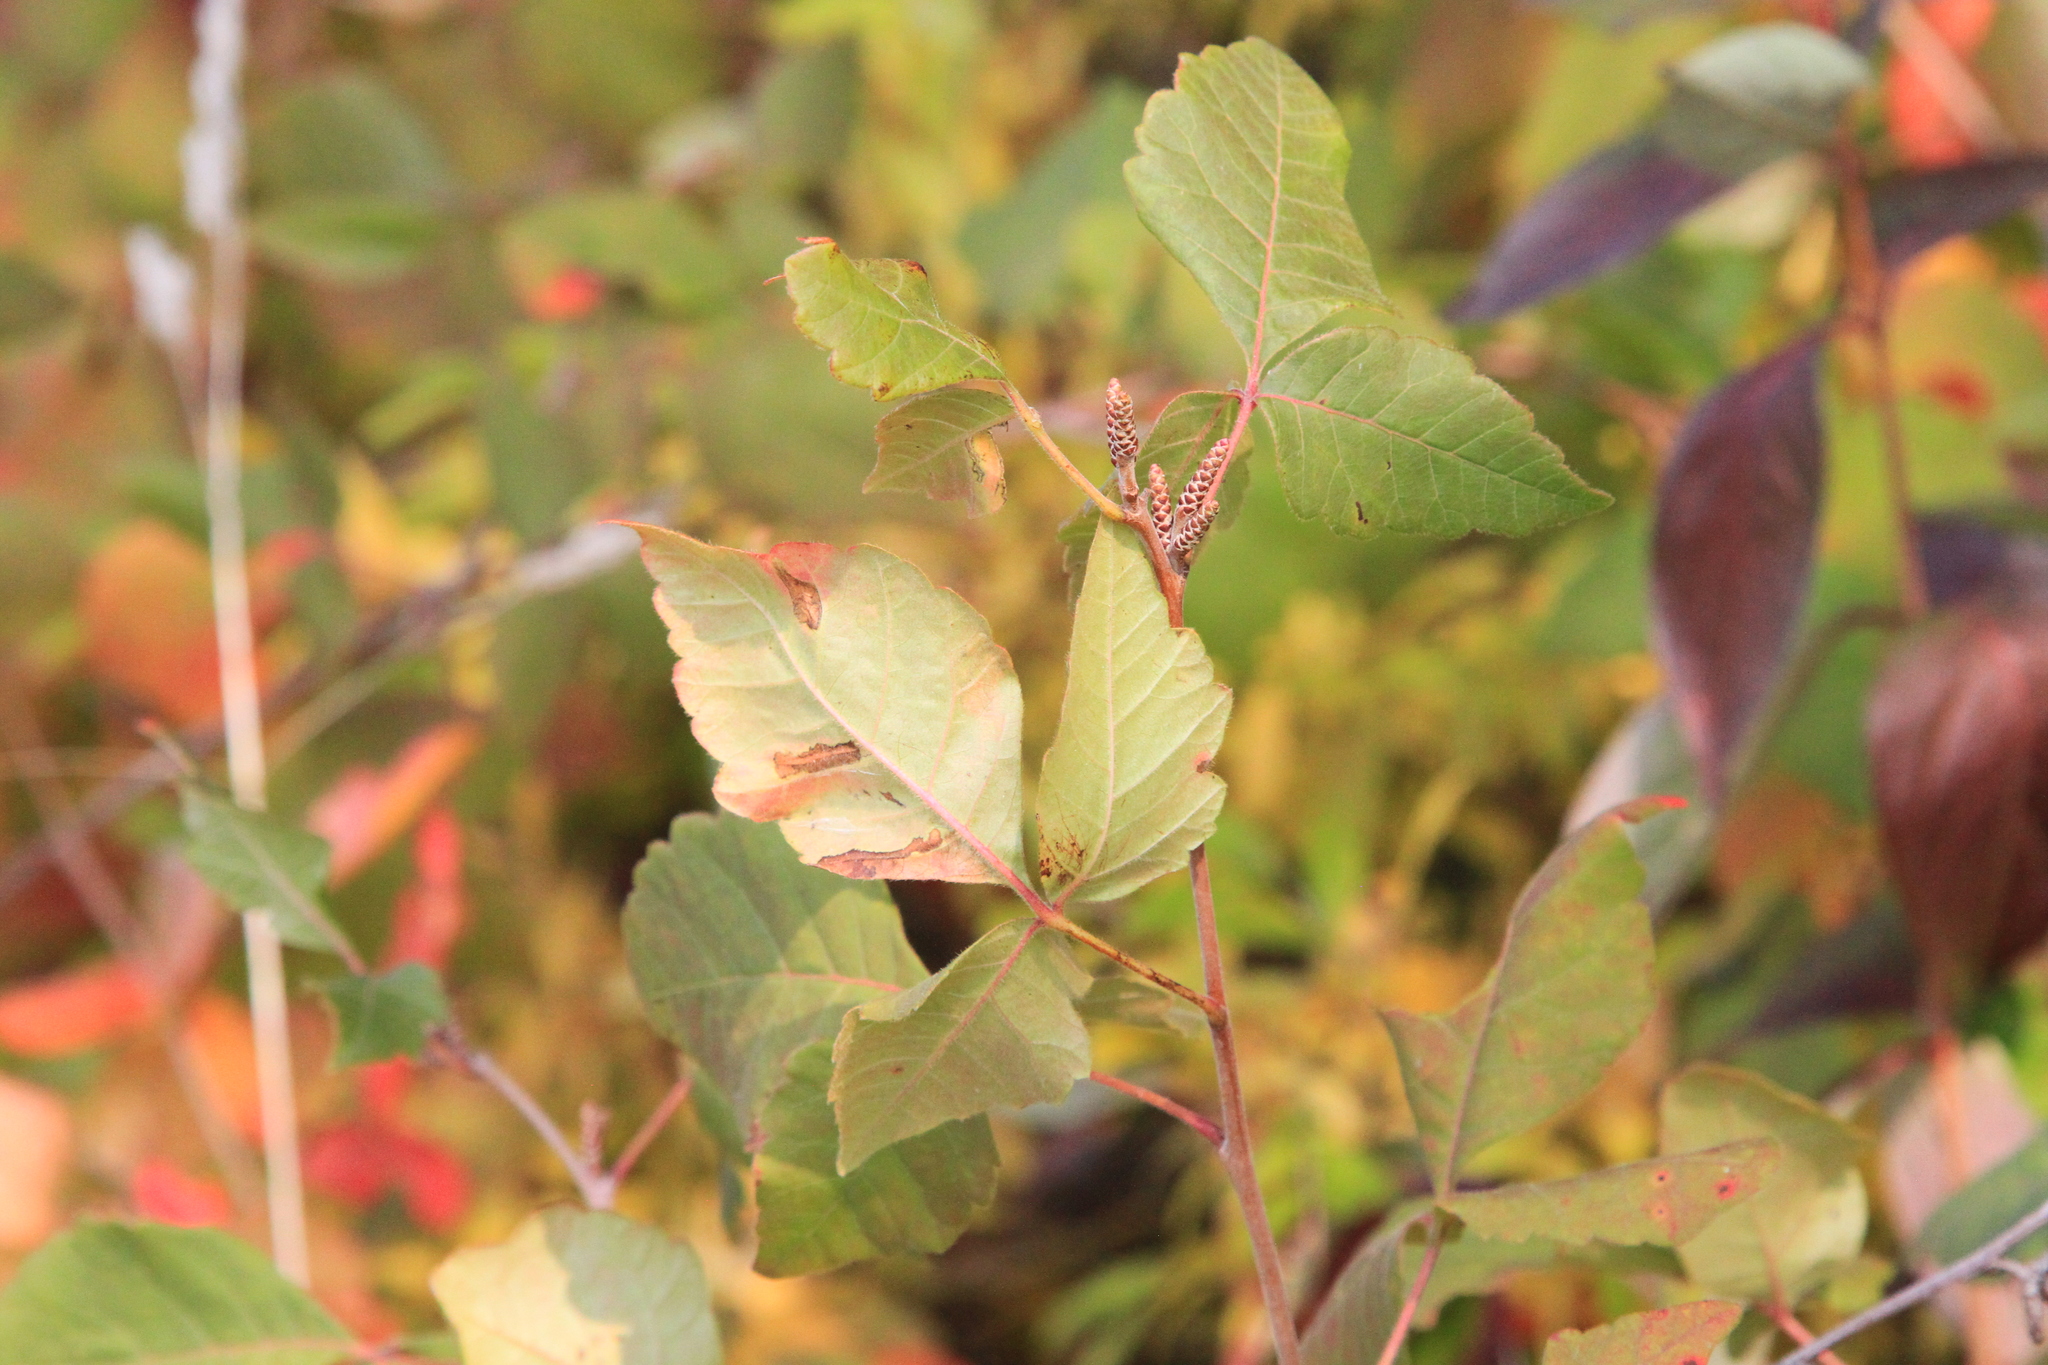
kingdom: Plantae
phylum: Tracheophyta
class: Magnoliopsida
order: Sapindales
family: Anacardiaceae
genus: Rhus
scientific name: Rhus aromatica
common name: Aromatic sumac
